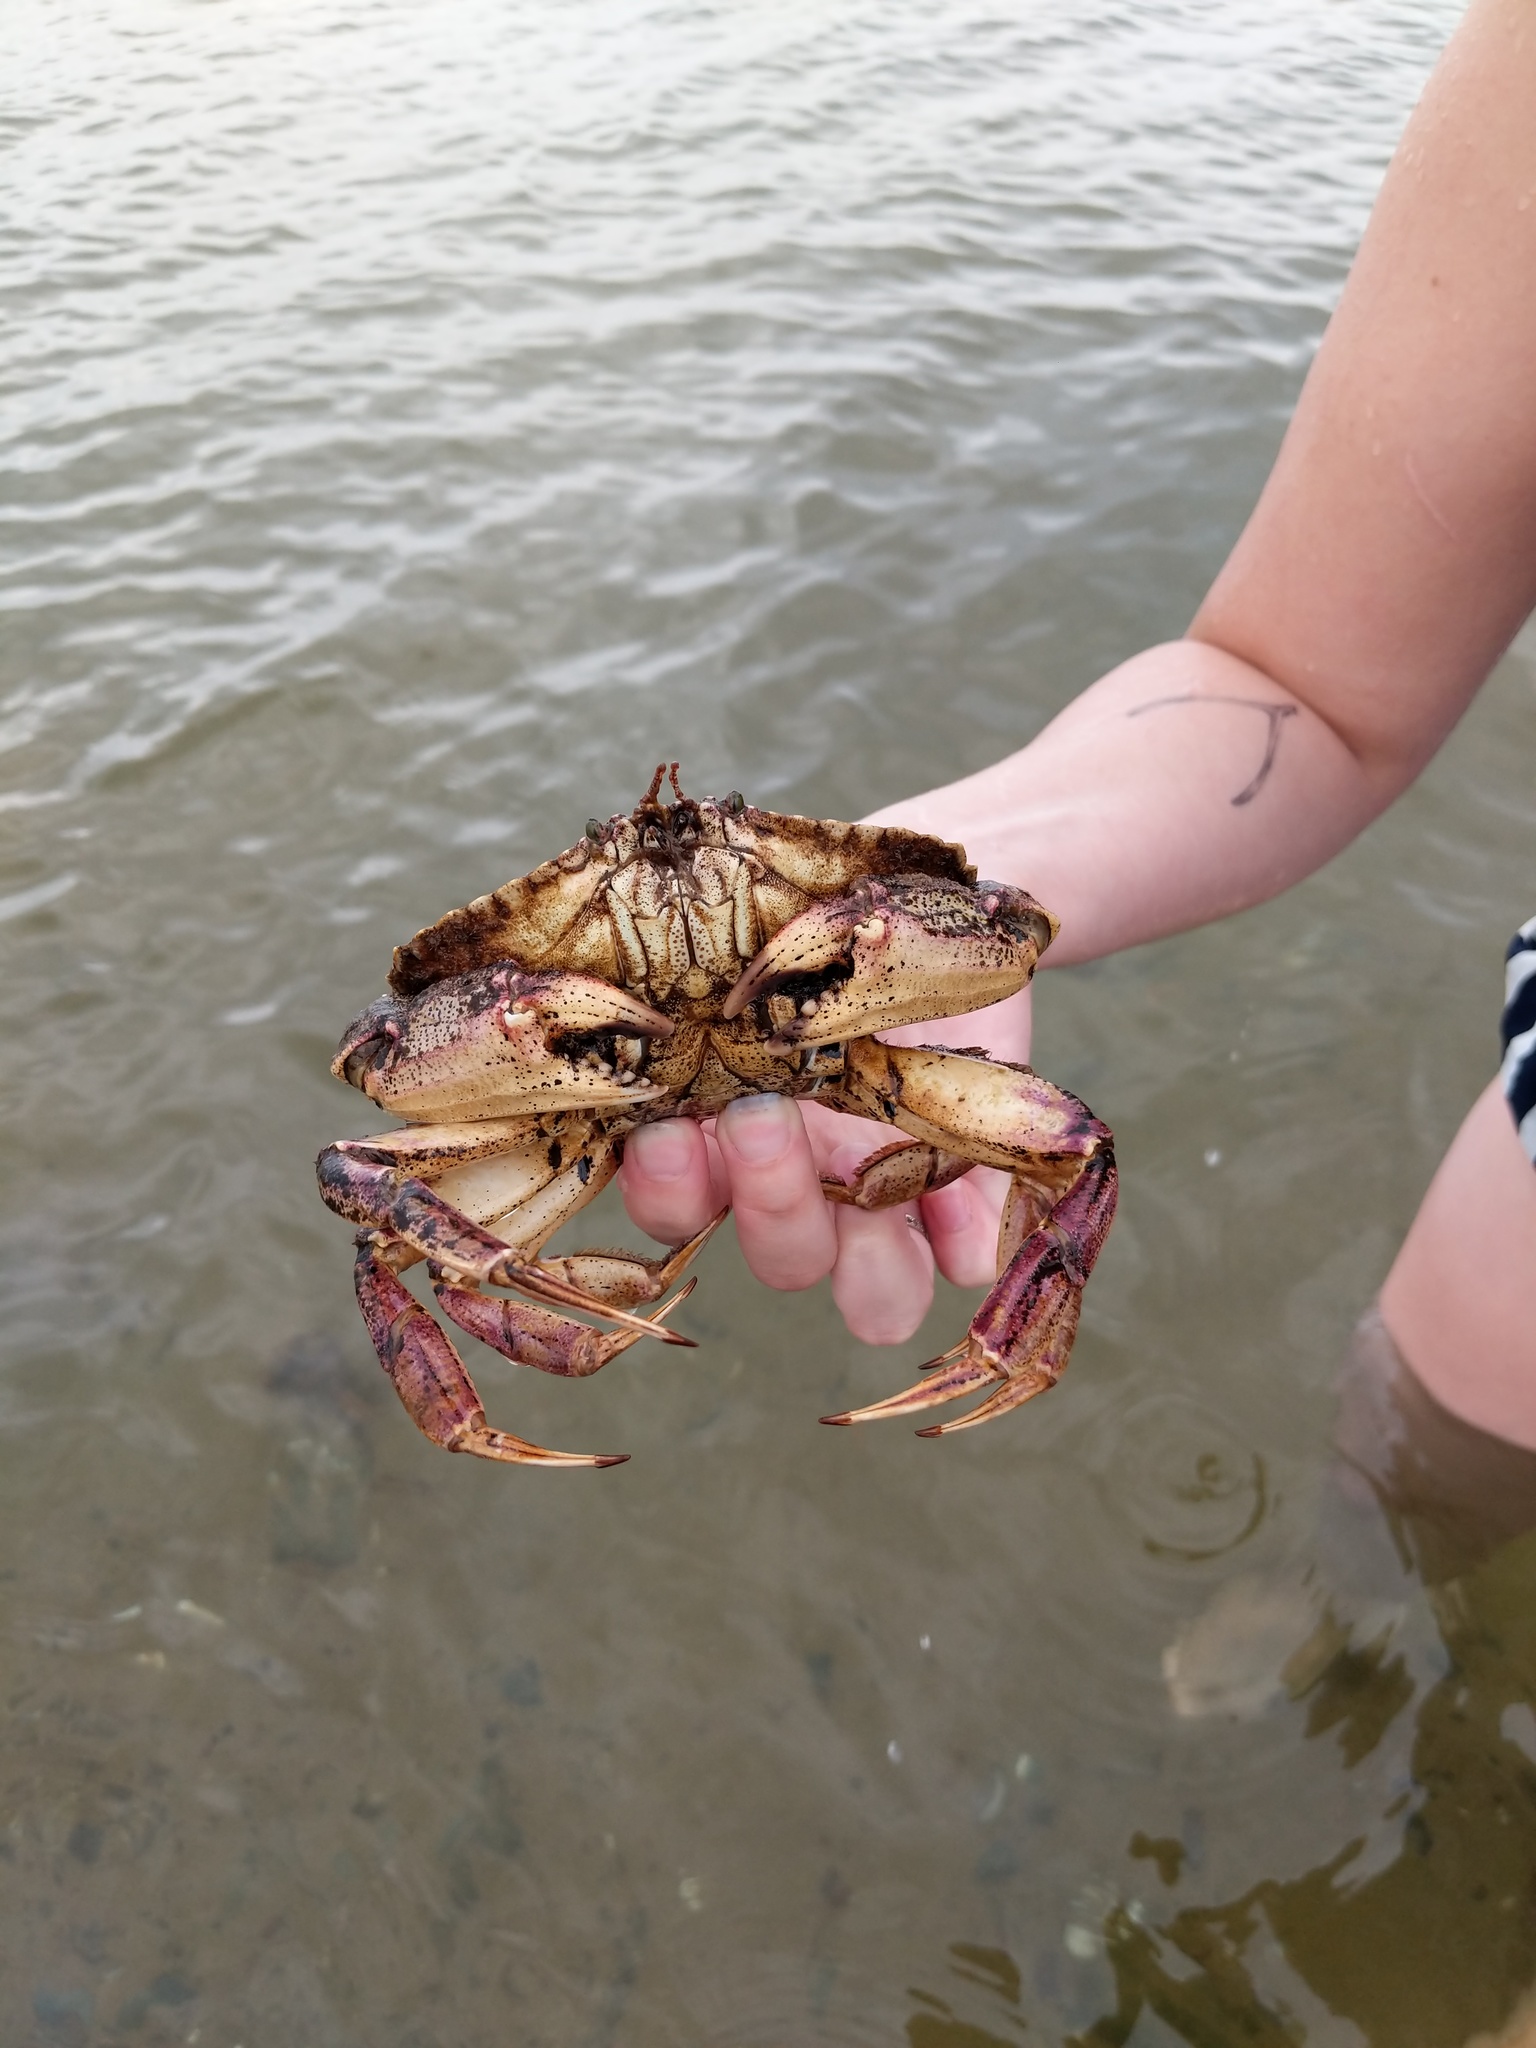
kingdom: Animalia
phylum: Arthropoda
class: Malacostraca
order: Decapoda
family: Cancridae
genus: Cancer
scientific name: Cancer irroratus
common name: Atlantic rock crab
